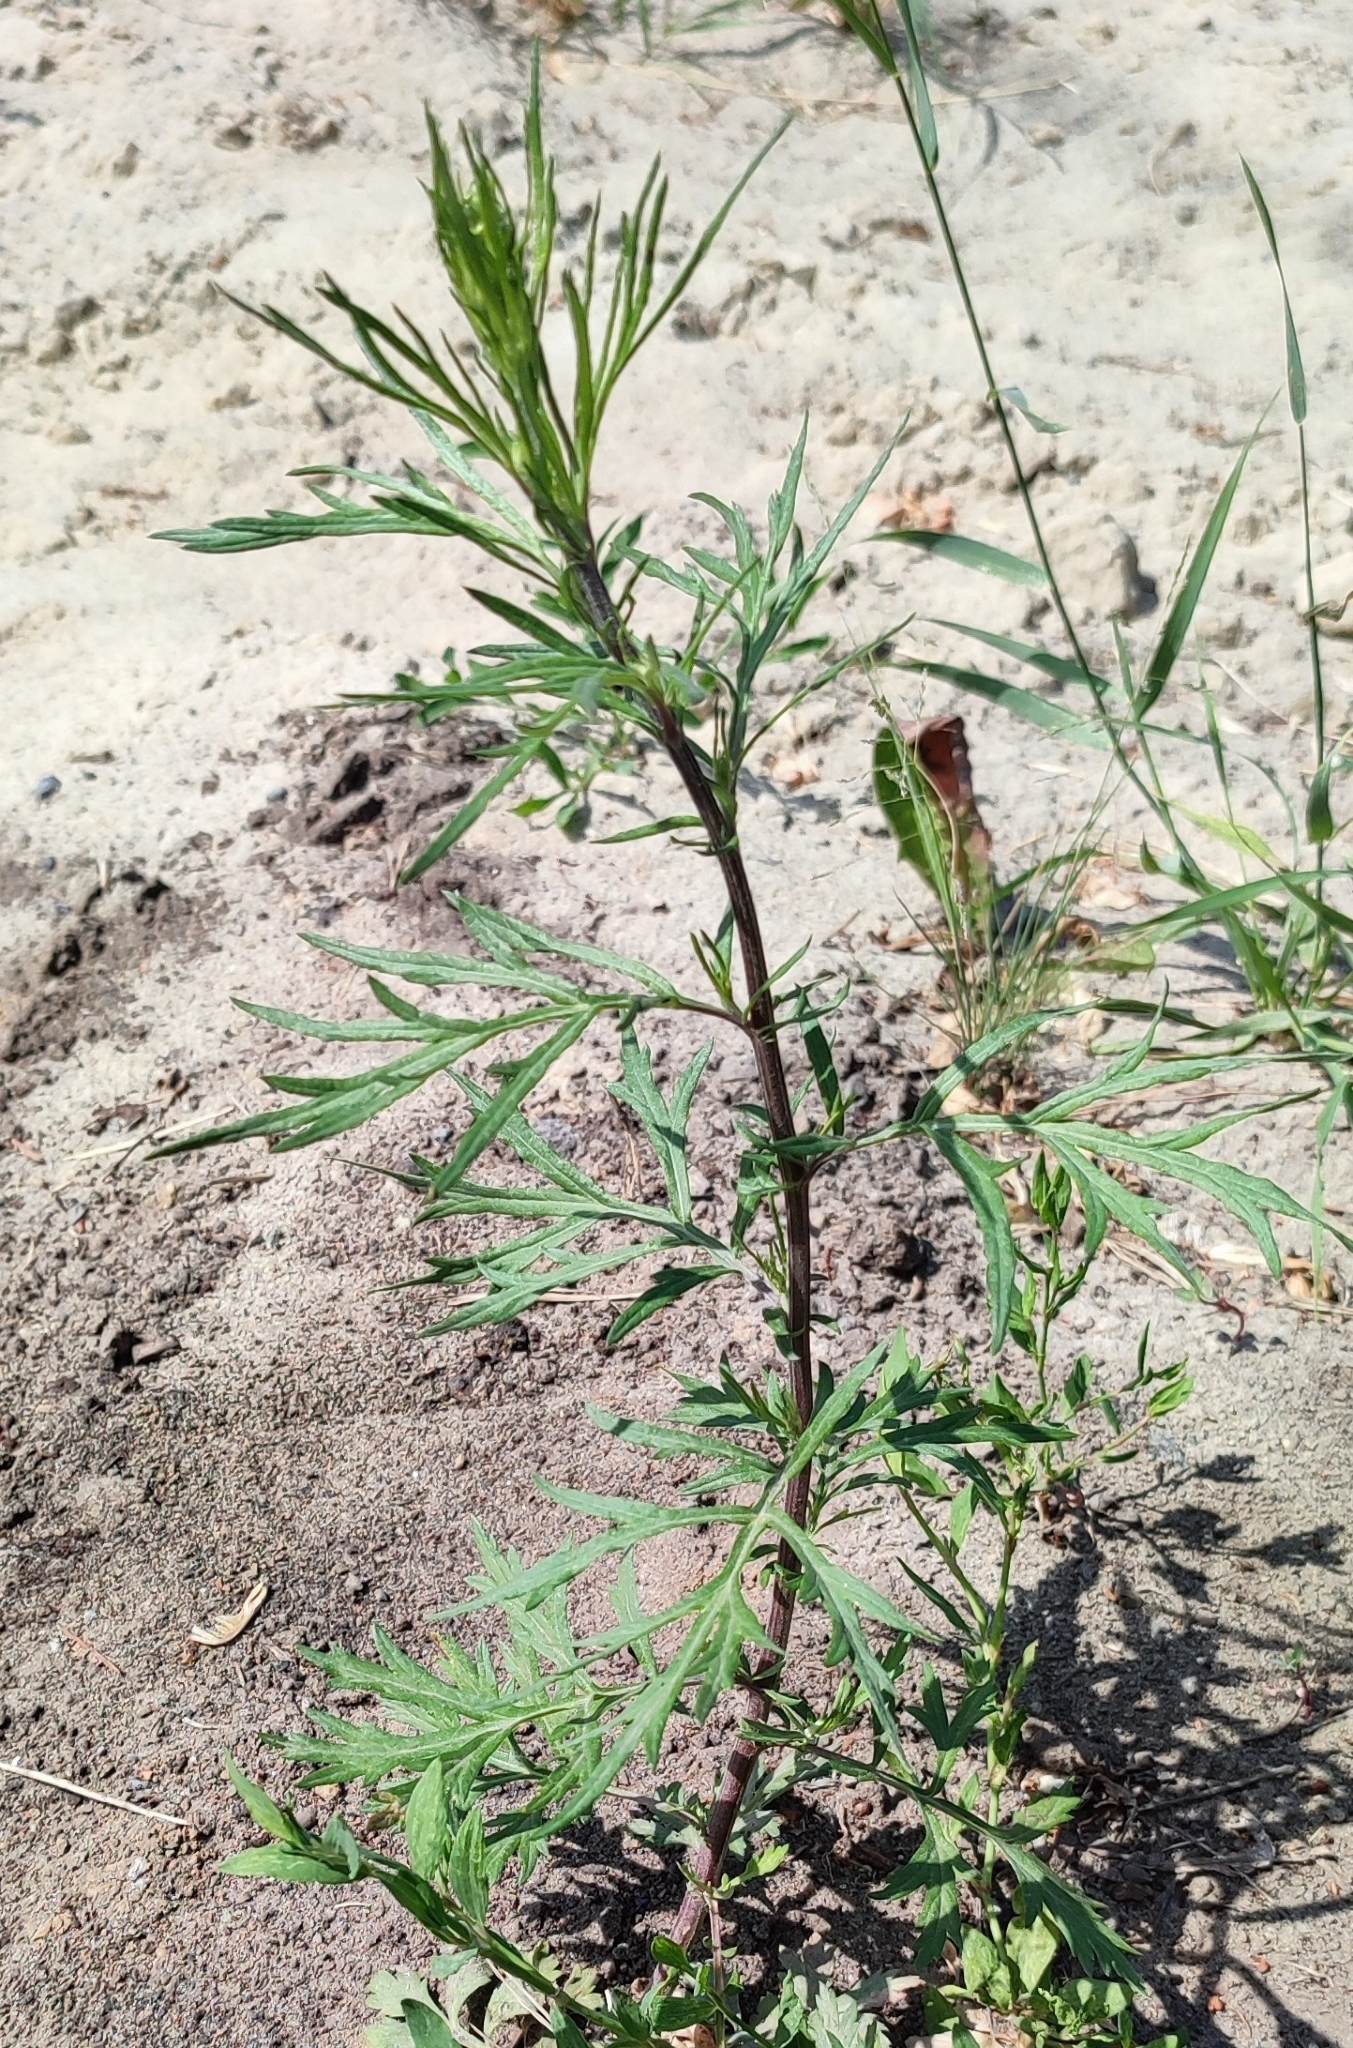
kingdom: Plantae
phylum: Tracheophyta
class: Magnoliopsida
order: Asterales
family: Asteraceae
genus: Artemisia
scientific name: Artemisia vulgaris
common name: Mugwort
